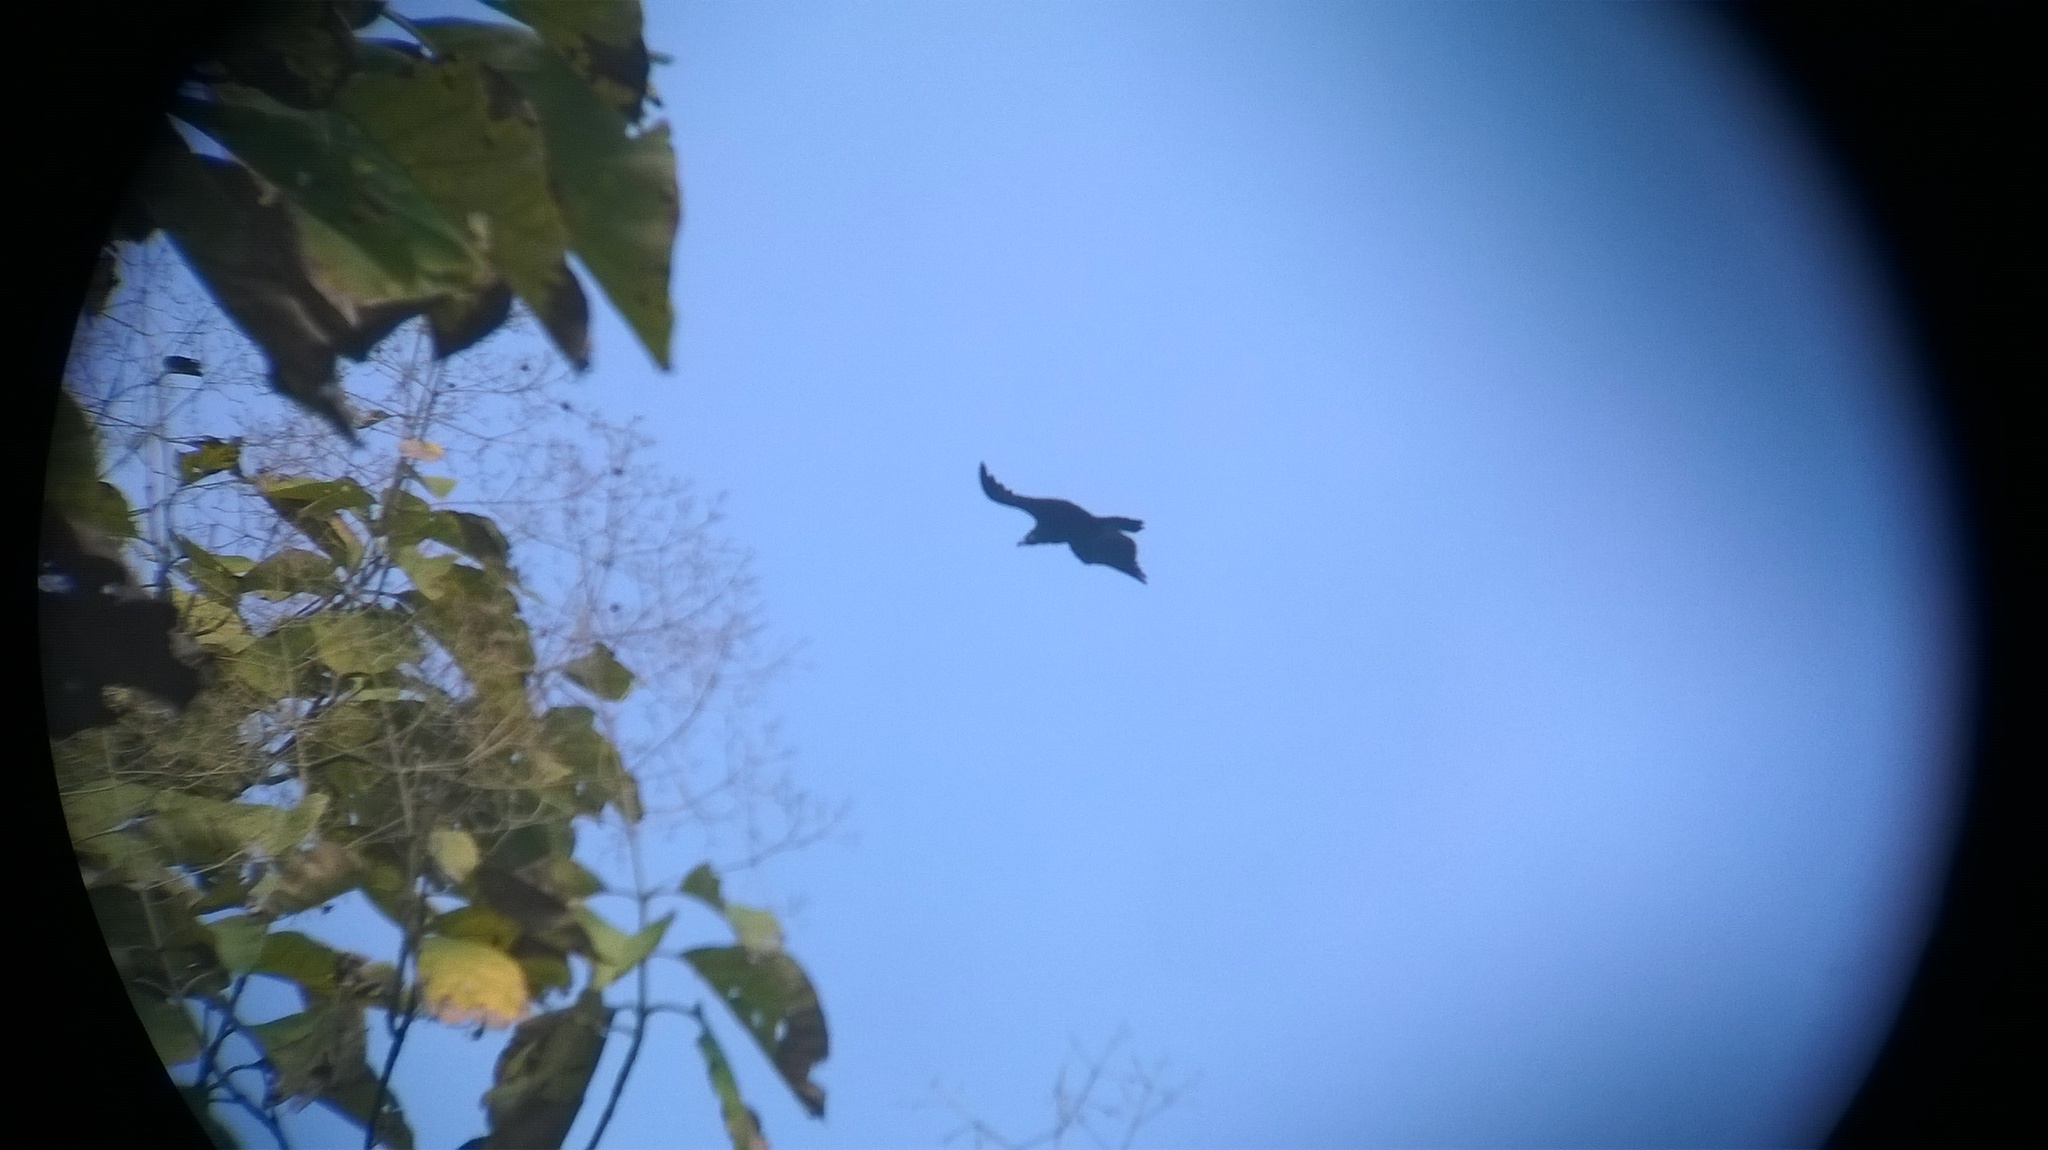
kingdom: Animalia
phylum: Chordata
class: Aves
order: Accipitriformes
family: Accipitridae
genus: Aegypius
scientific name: Aegypius monachus
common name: Cinereous vulture
